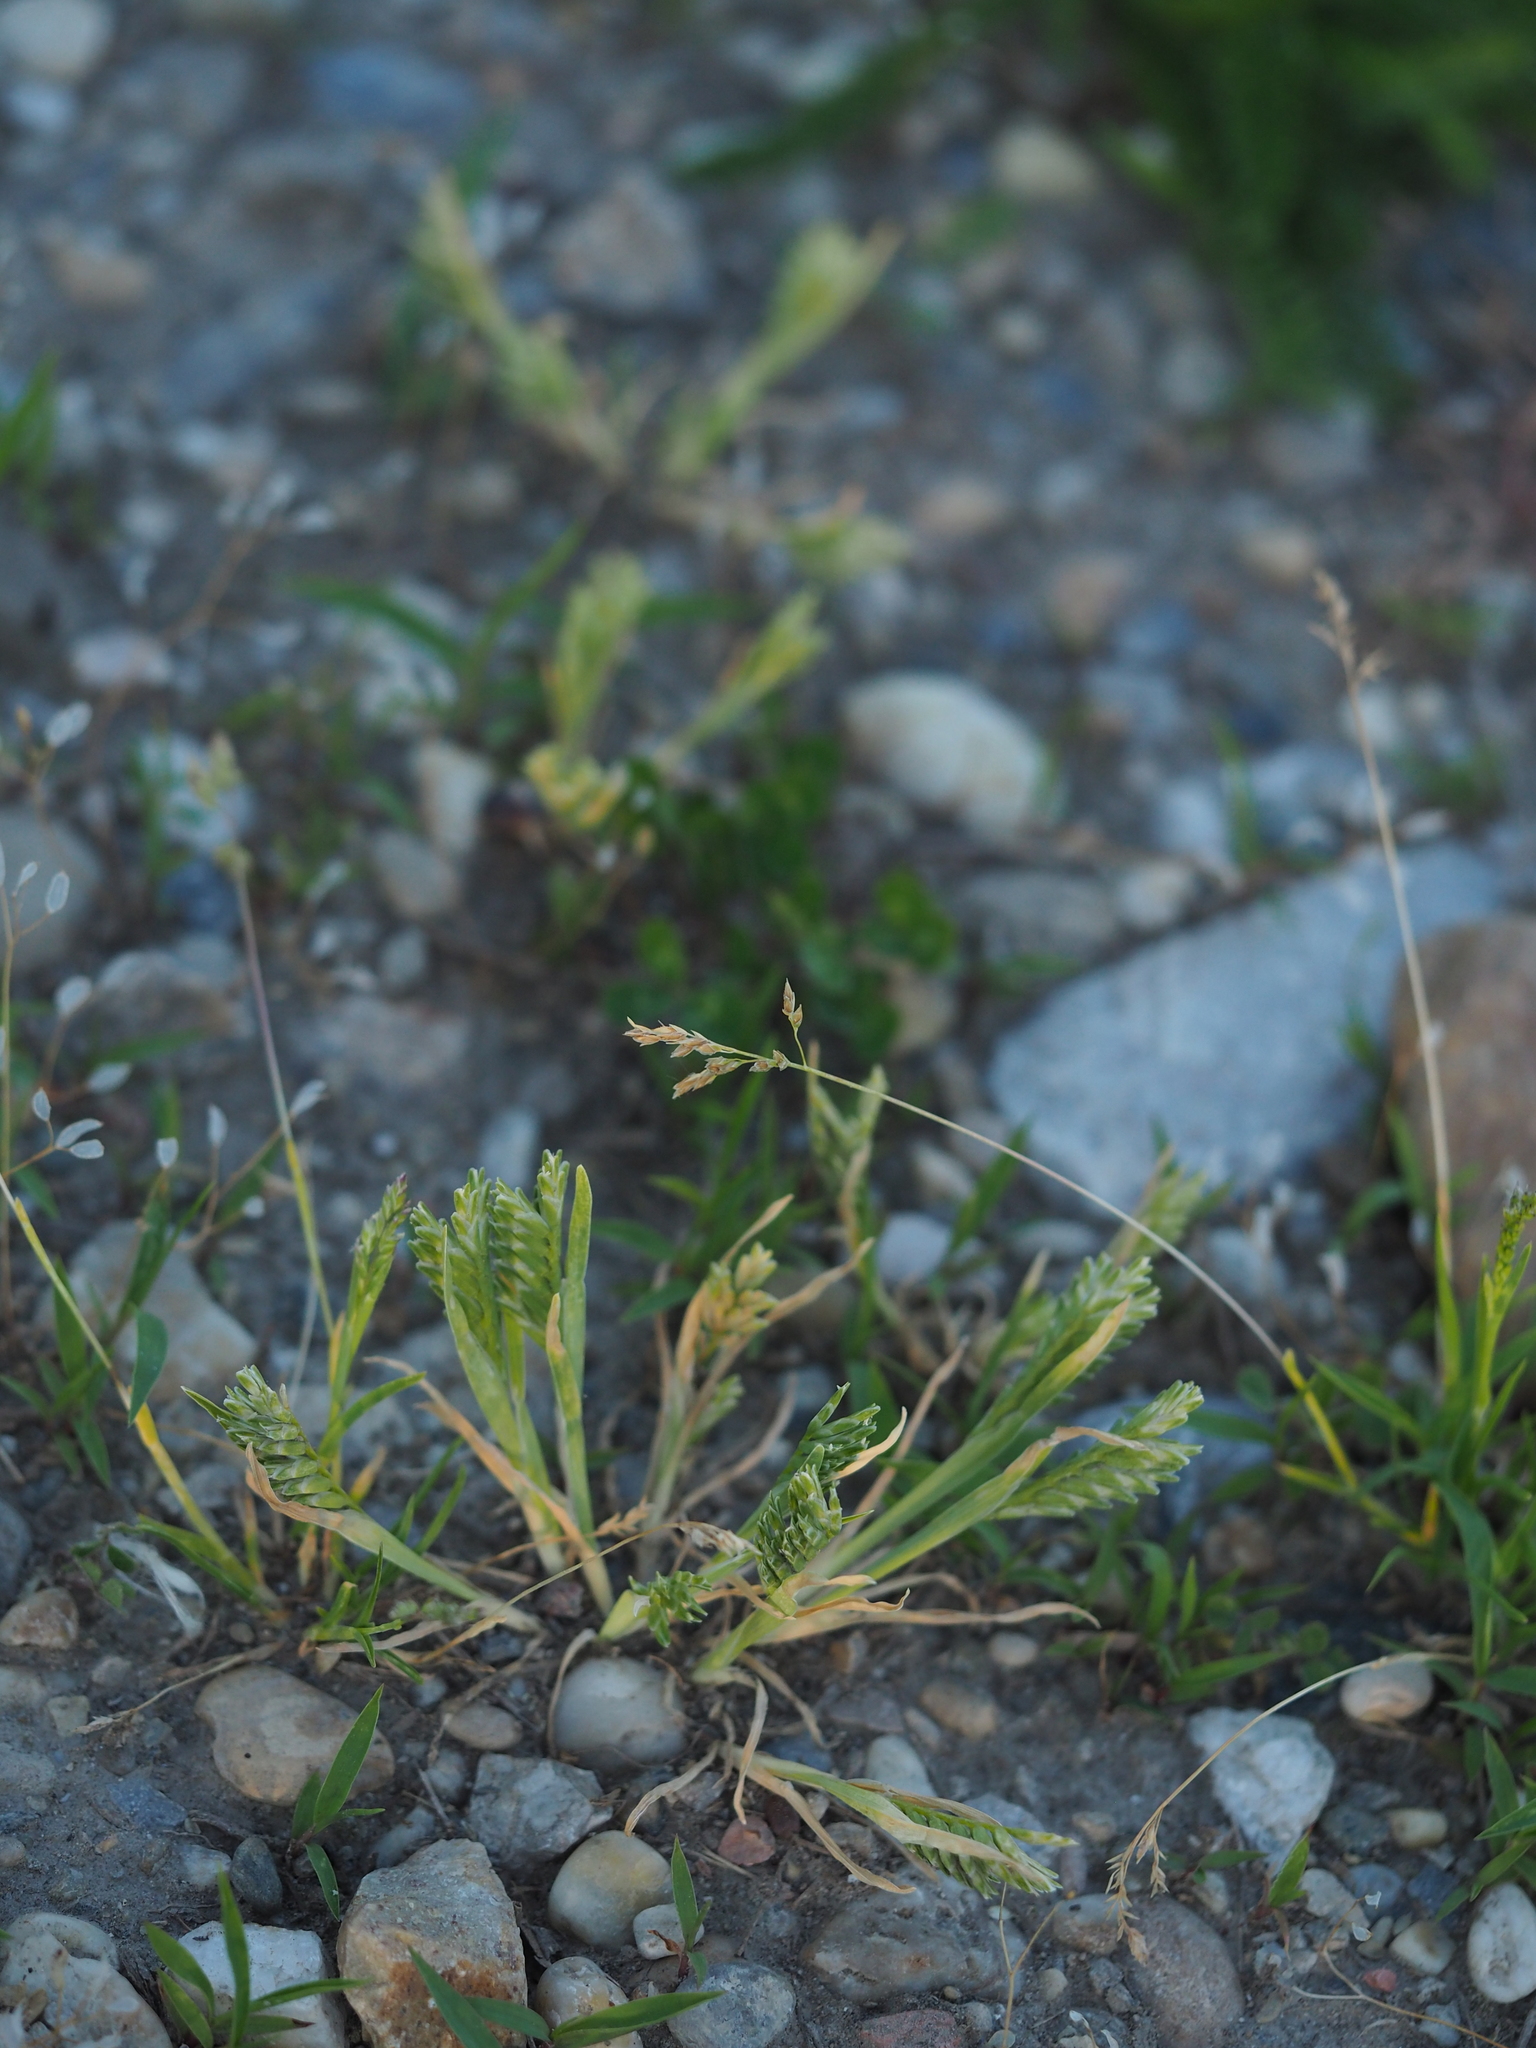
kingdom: Plantae
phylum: Tracheophyta
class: Liliopsida
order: Poales
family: Poaceae
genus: Sclerochloa
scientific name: Sclerochloa dura
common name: Common hardgrass
